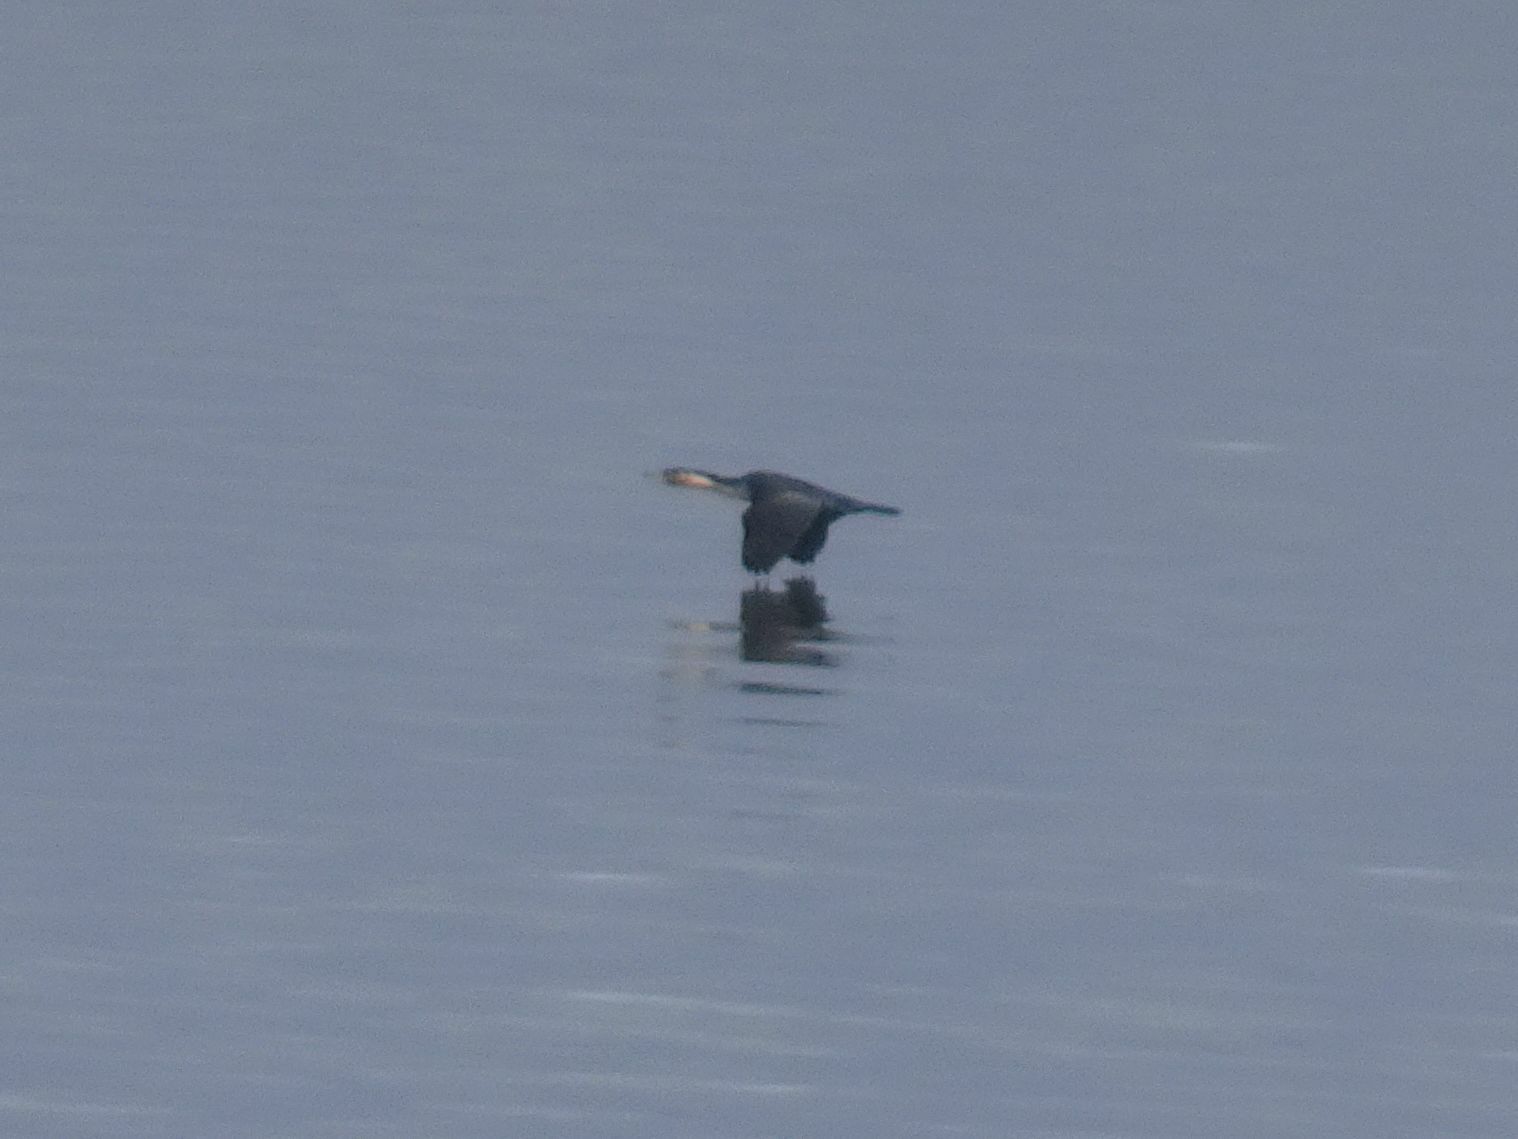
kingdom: Animalia
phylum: Chordata
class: Aves
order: Suliformes
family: Phalacrocoracidae
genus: Phalacrocorax
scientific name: Phalacrocorax carbo
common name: Great cormorant
